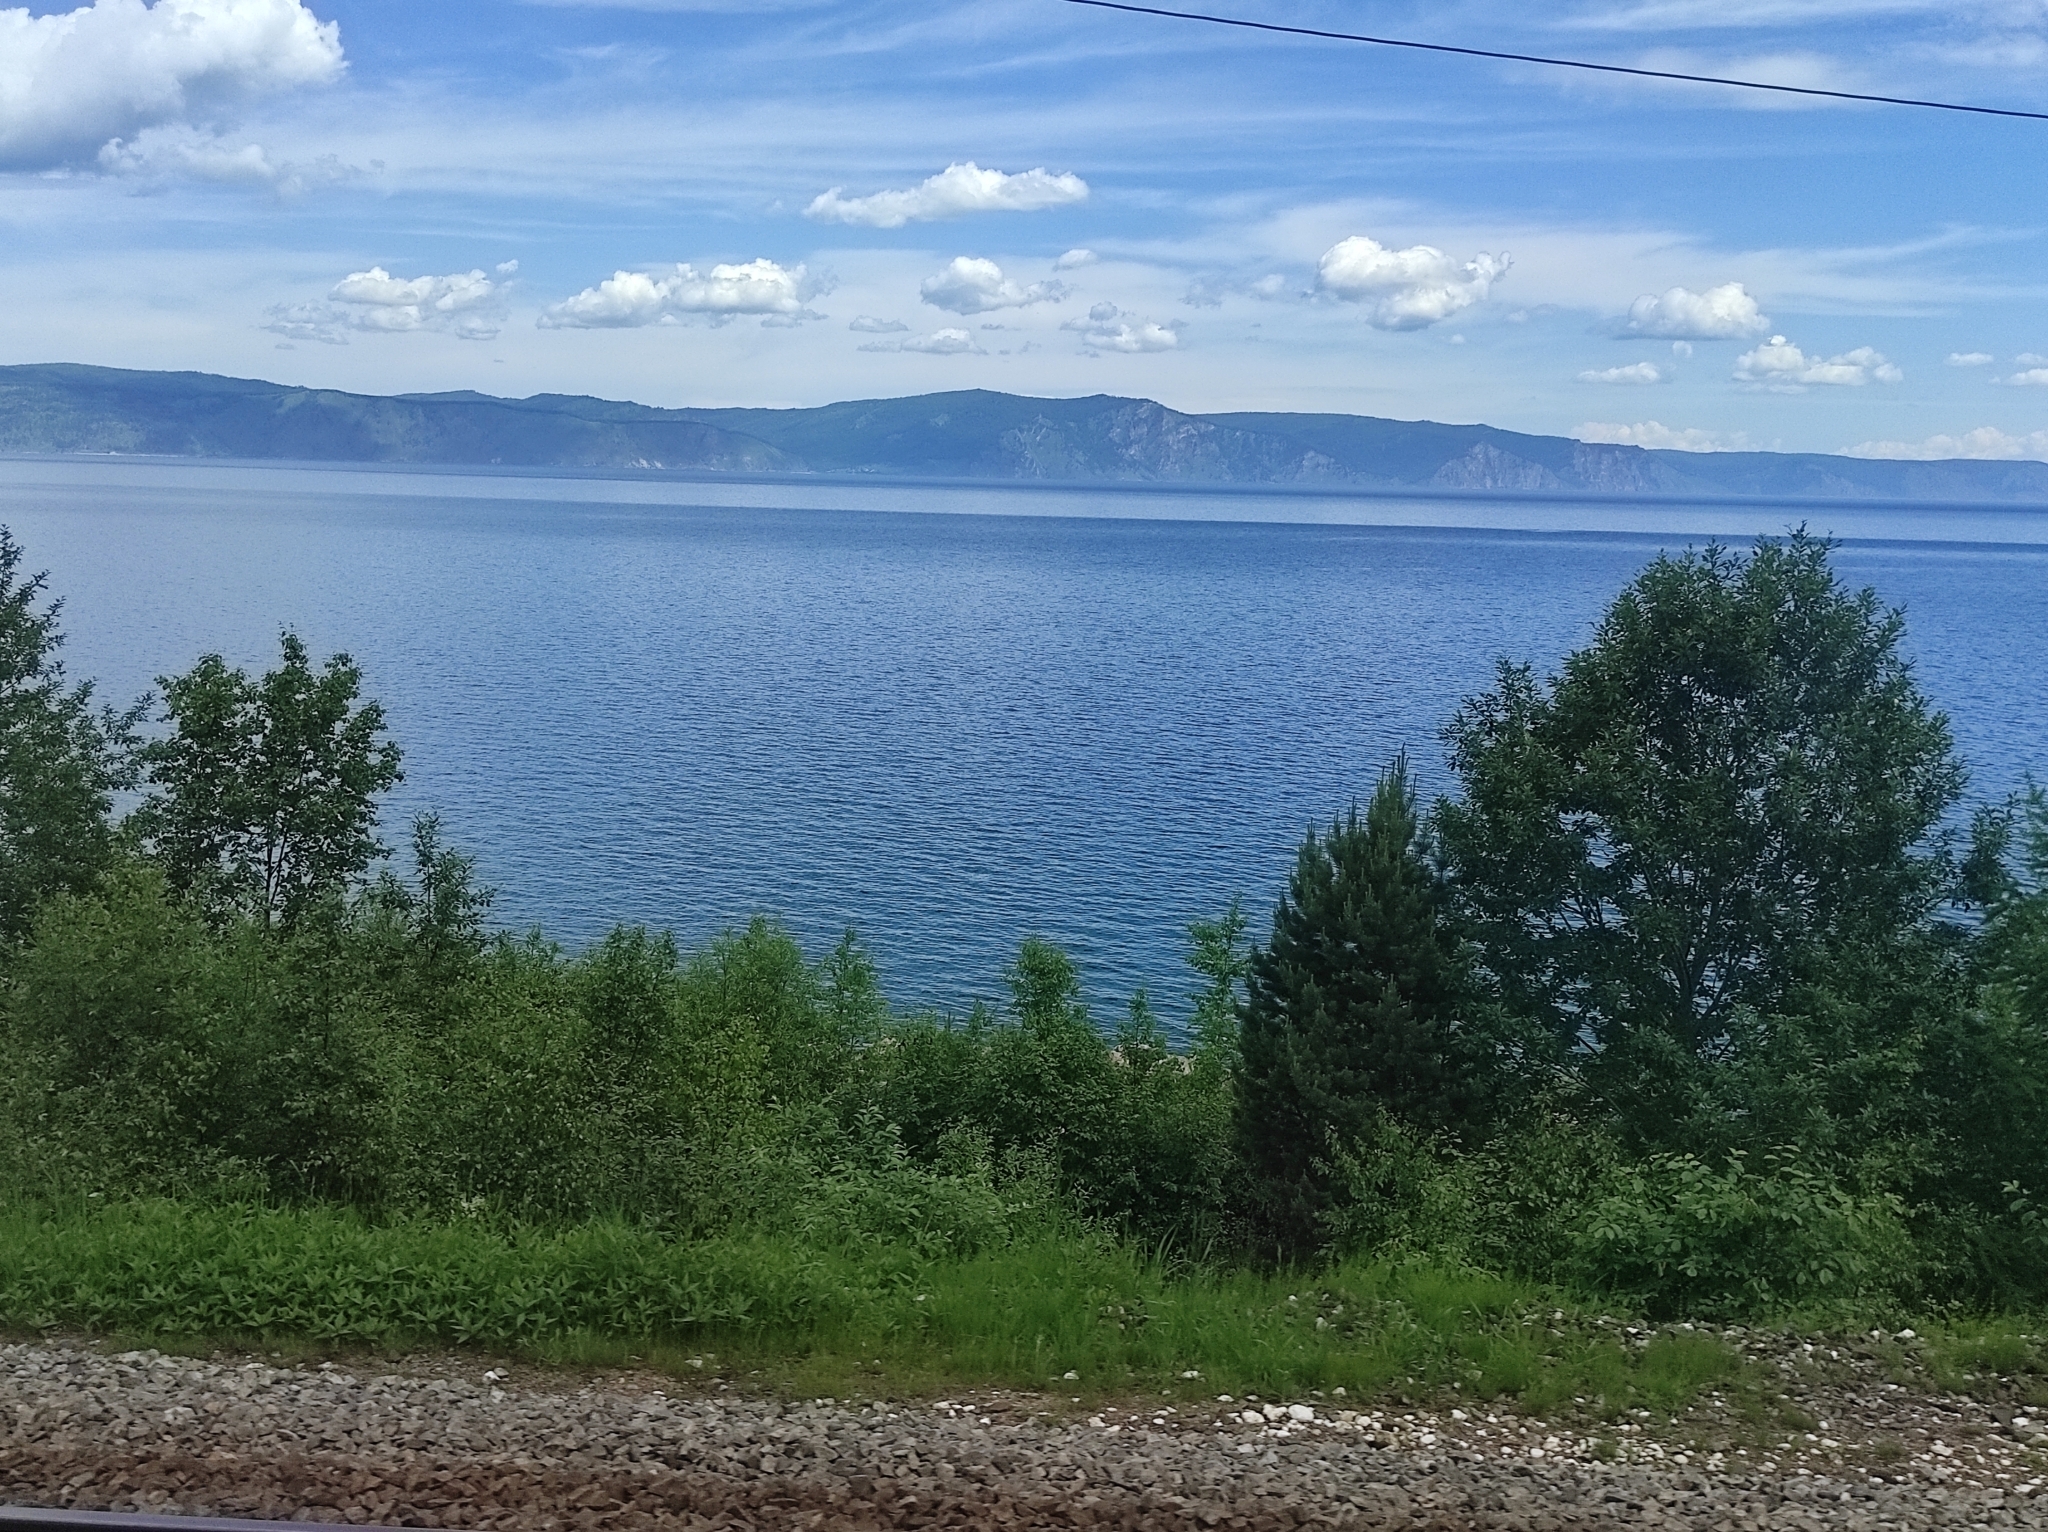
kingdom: Plantae
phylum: Tracheophyta
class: Pinopsida
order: Pinales
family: Pinaceae
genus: Pinus
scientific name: Pinus sylvestris
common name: Scots pine
